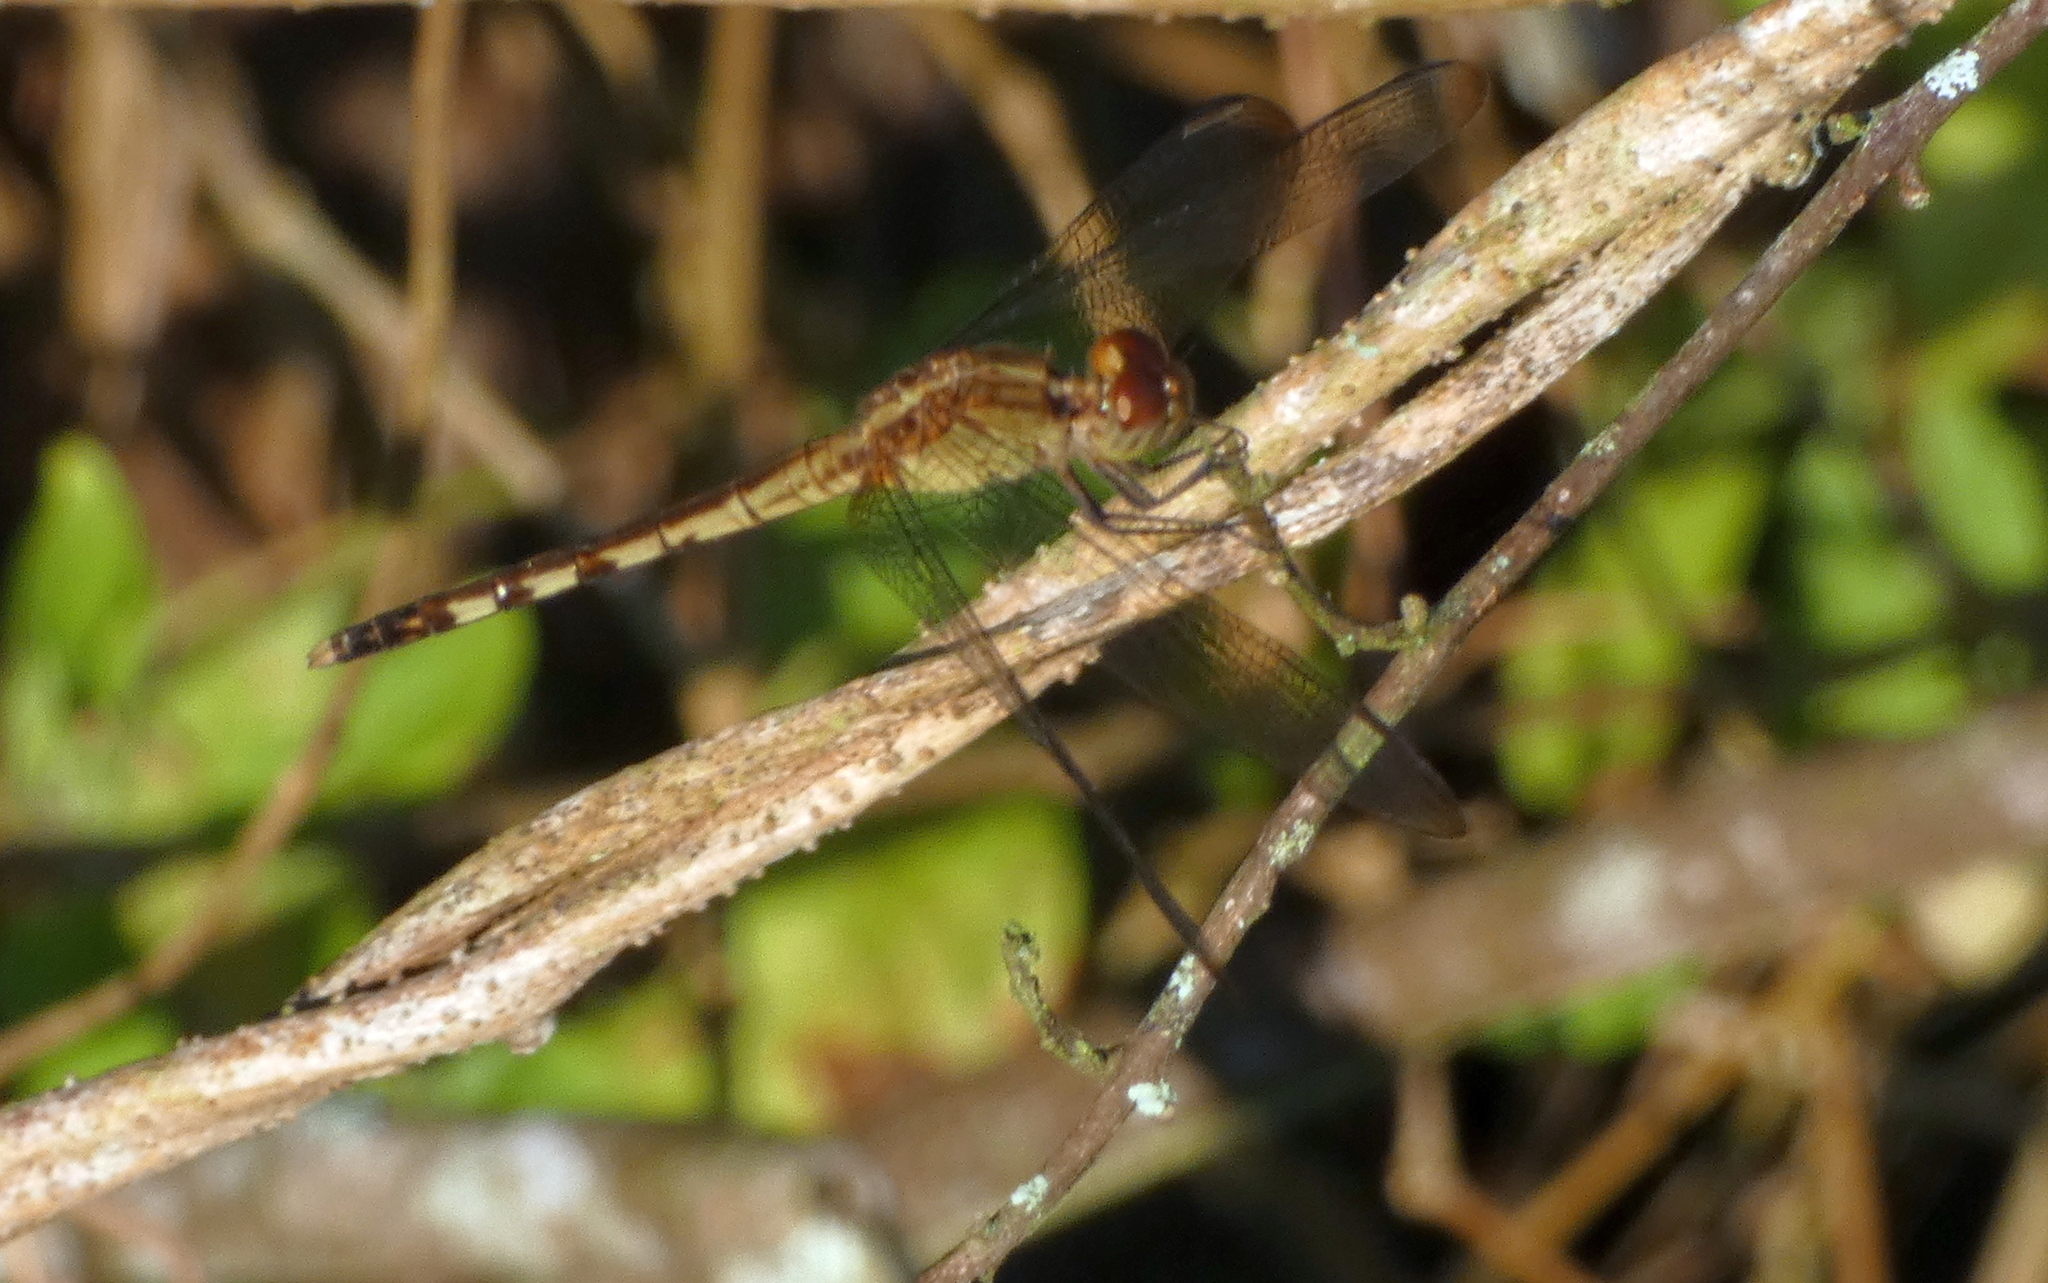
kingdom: Animalia
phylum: Arthropoda
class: Insecta
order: Odonata
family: Libellulidae
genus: Erythrodiplax
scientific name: Erythrodiplax umbrata
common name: Band-winged dragonlet
